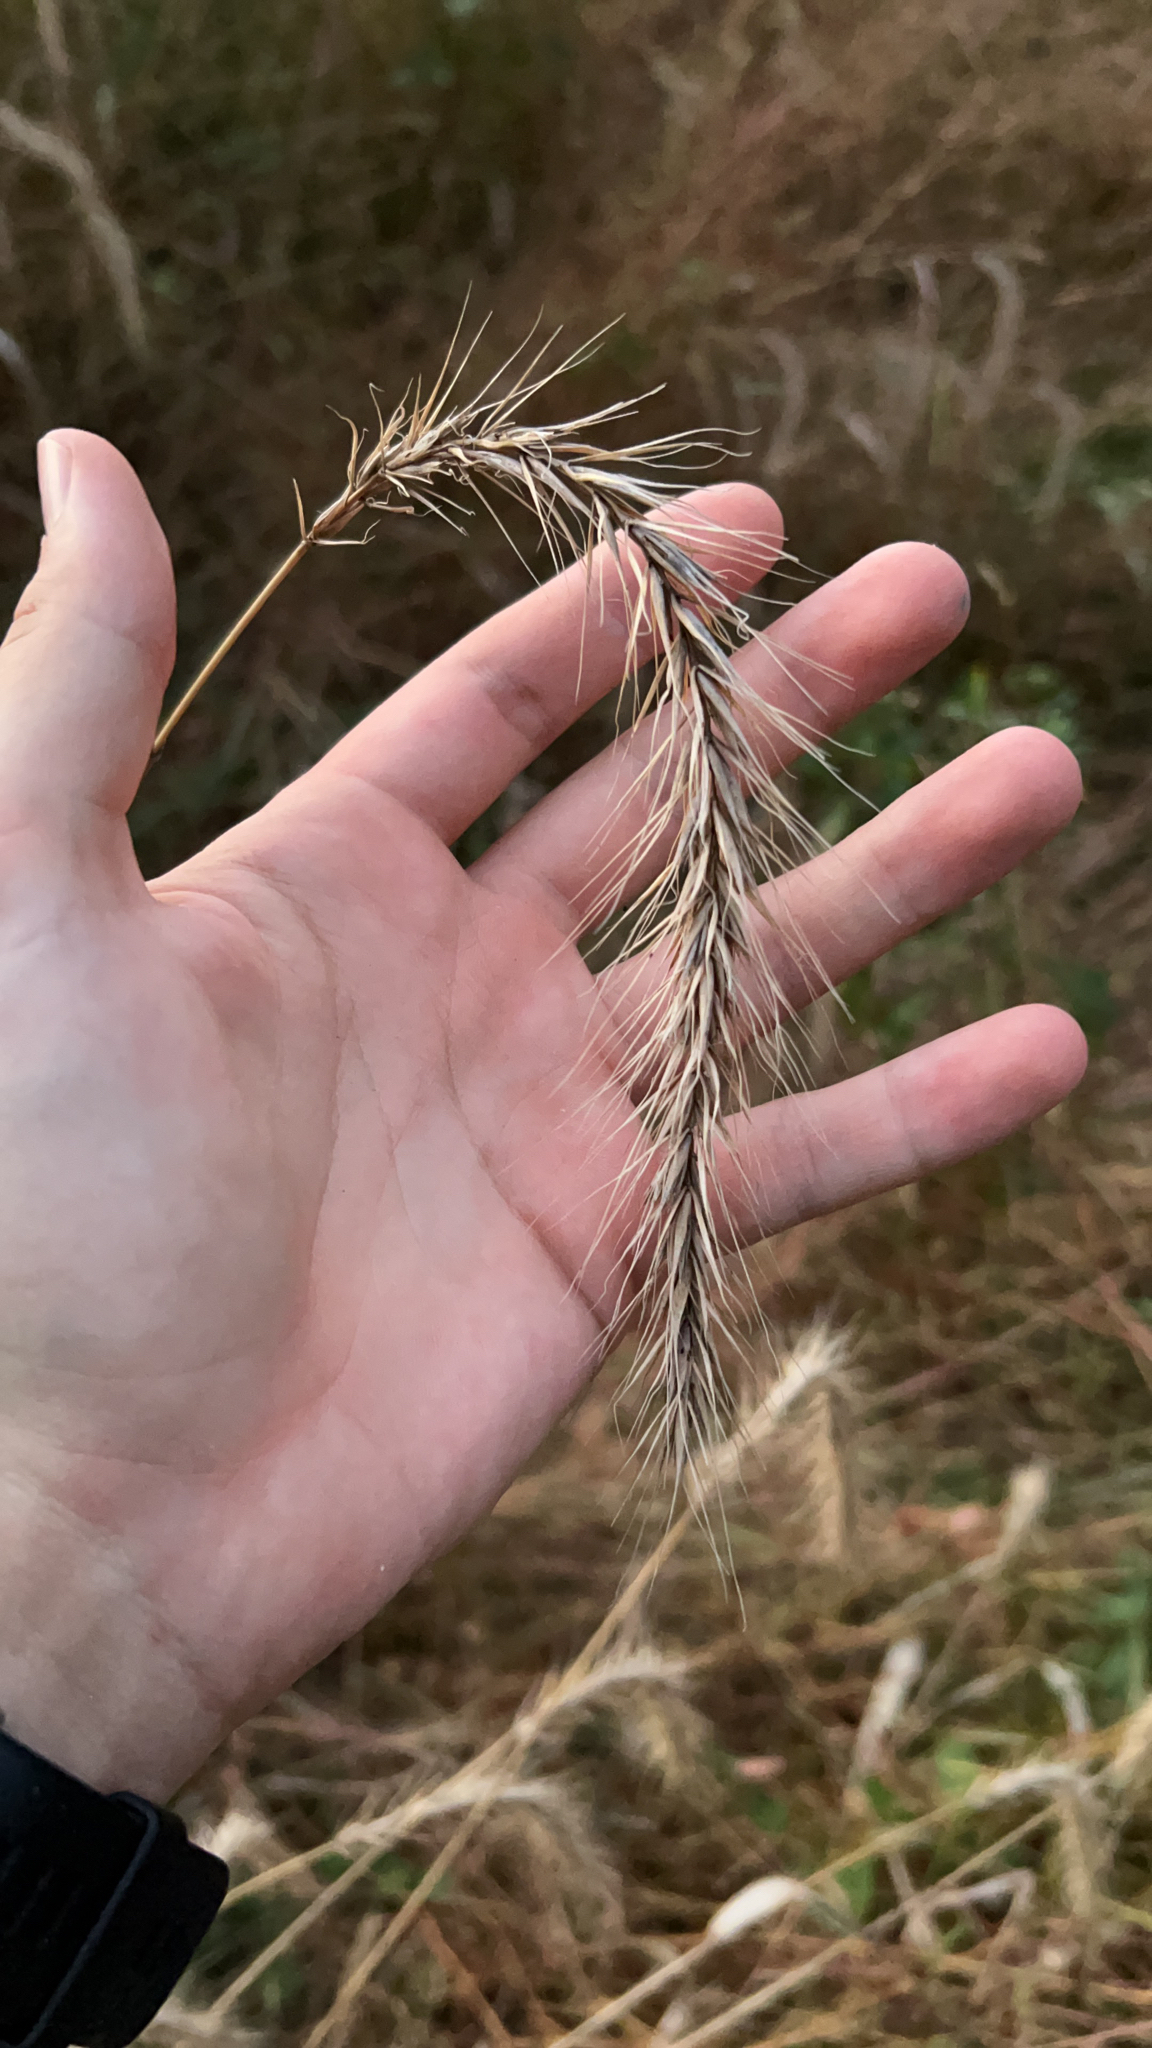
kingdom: Plantae
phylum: Tracheophyta
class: Liliopsida
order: Poales
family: Poaceae
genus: Elymus
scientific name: Elymus riparius
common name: Eastern riverbank wild rye
